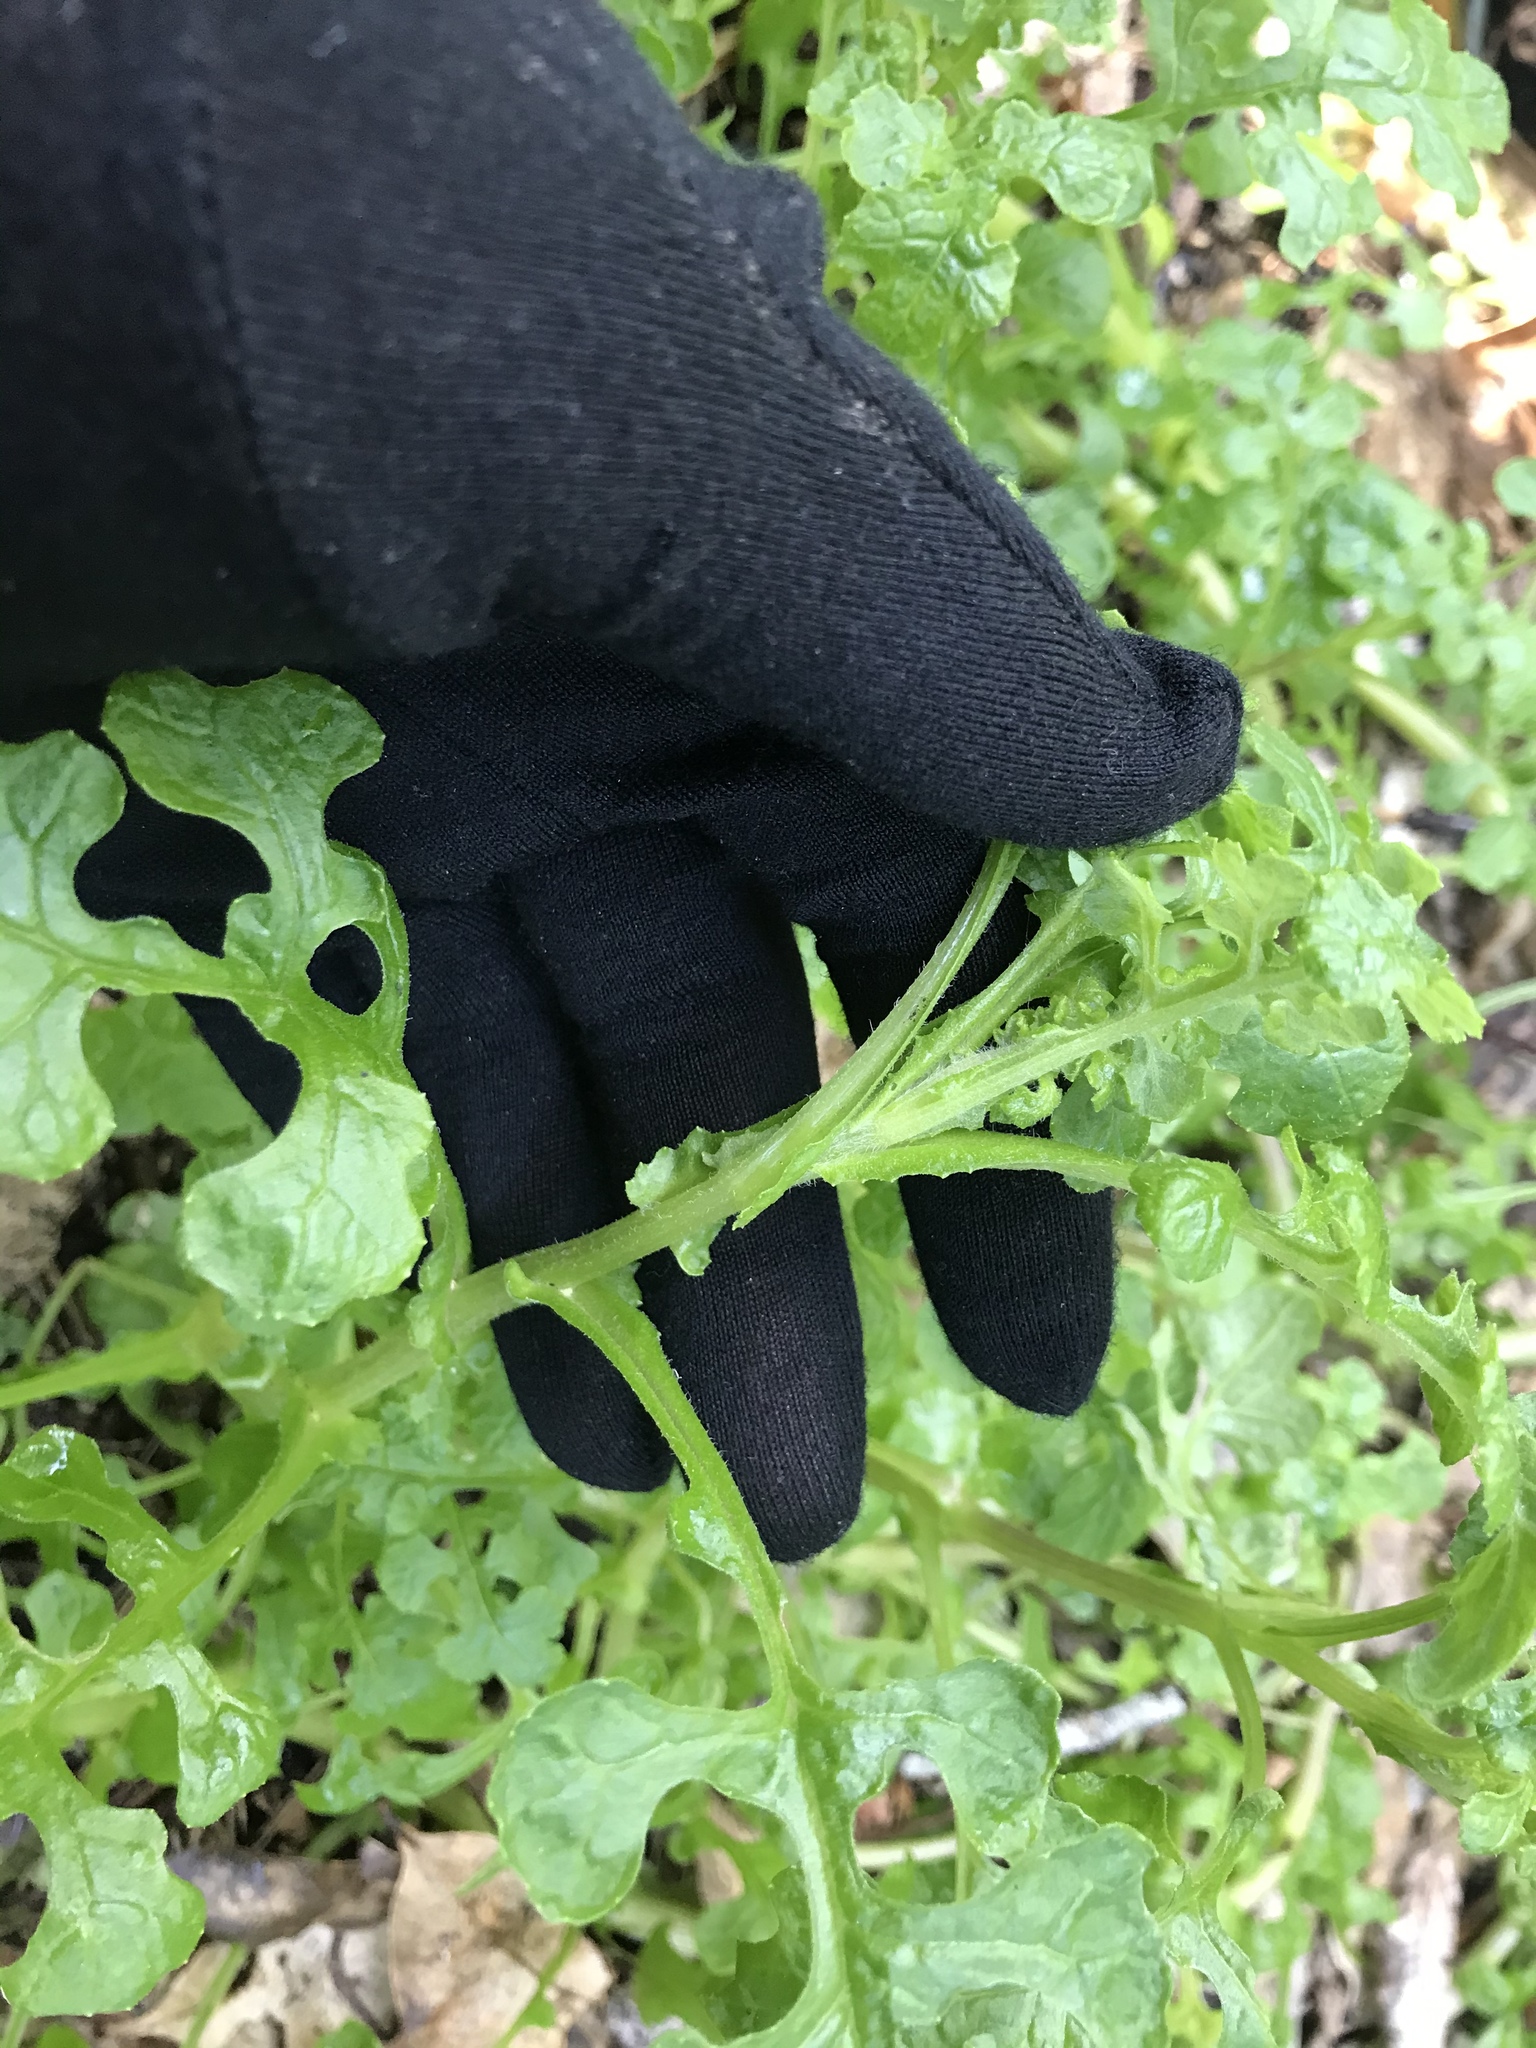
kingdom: Plantae
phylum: Tracheophyta
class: Magnoliopsida
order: Asterales
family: Asteraceae
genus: Senecio
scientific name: Senecio elegans
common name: Purple groundsel
